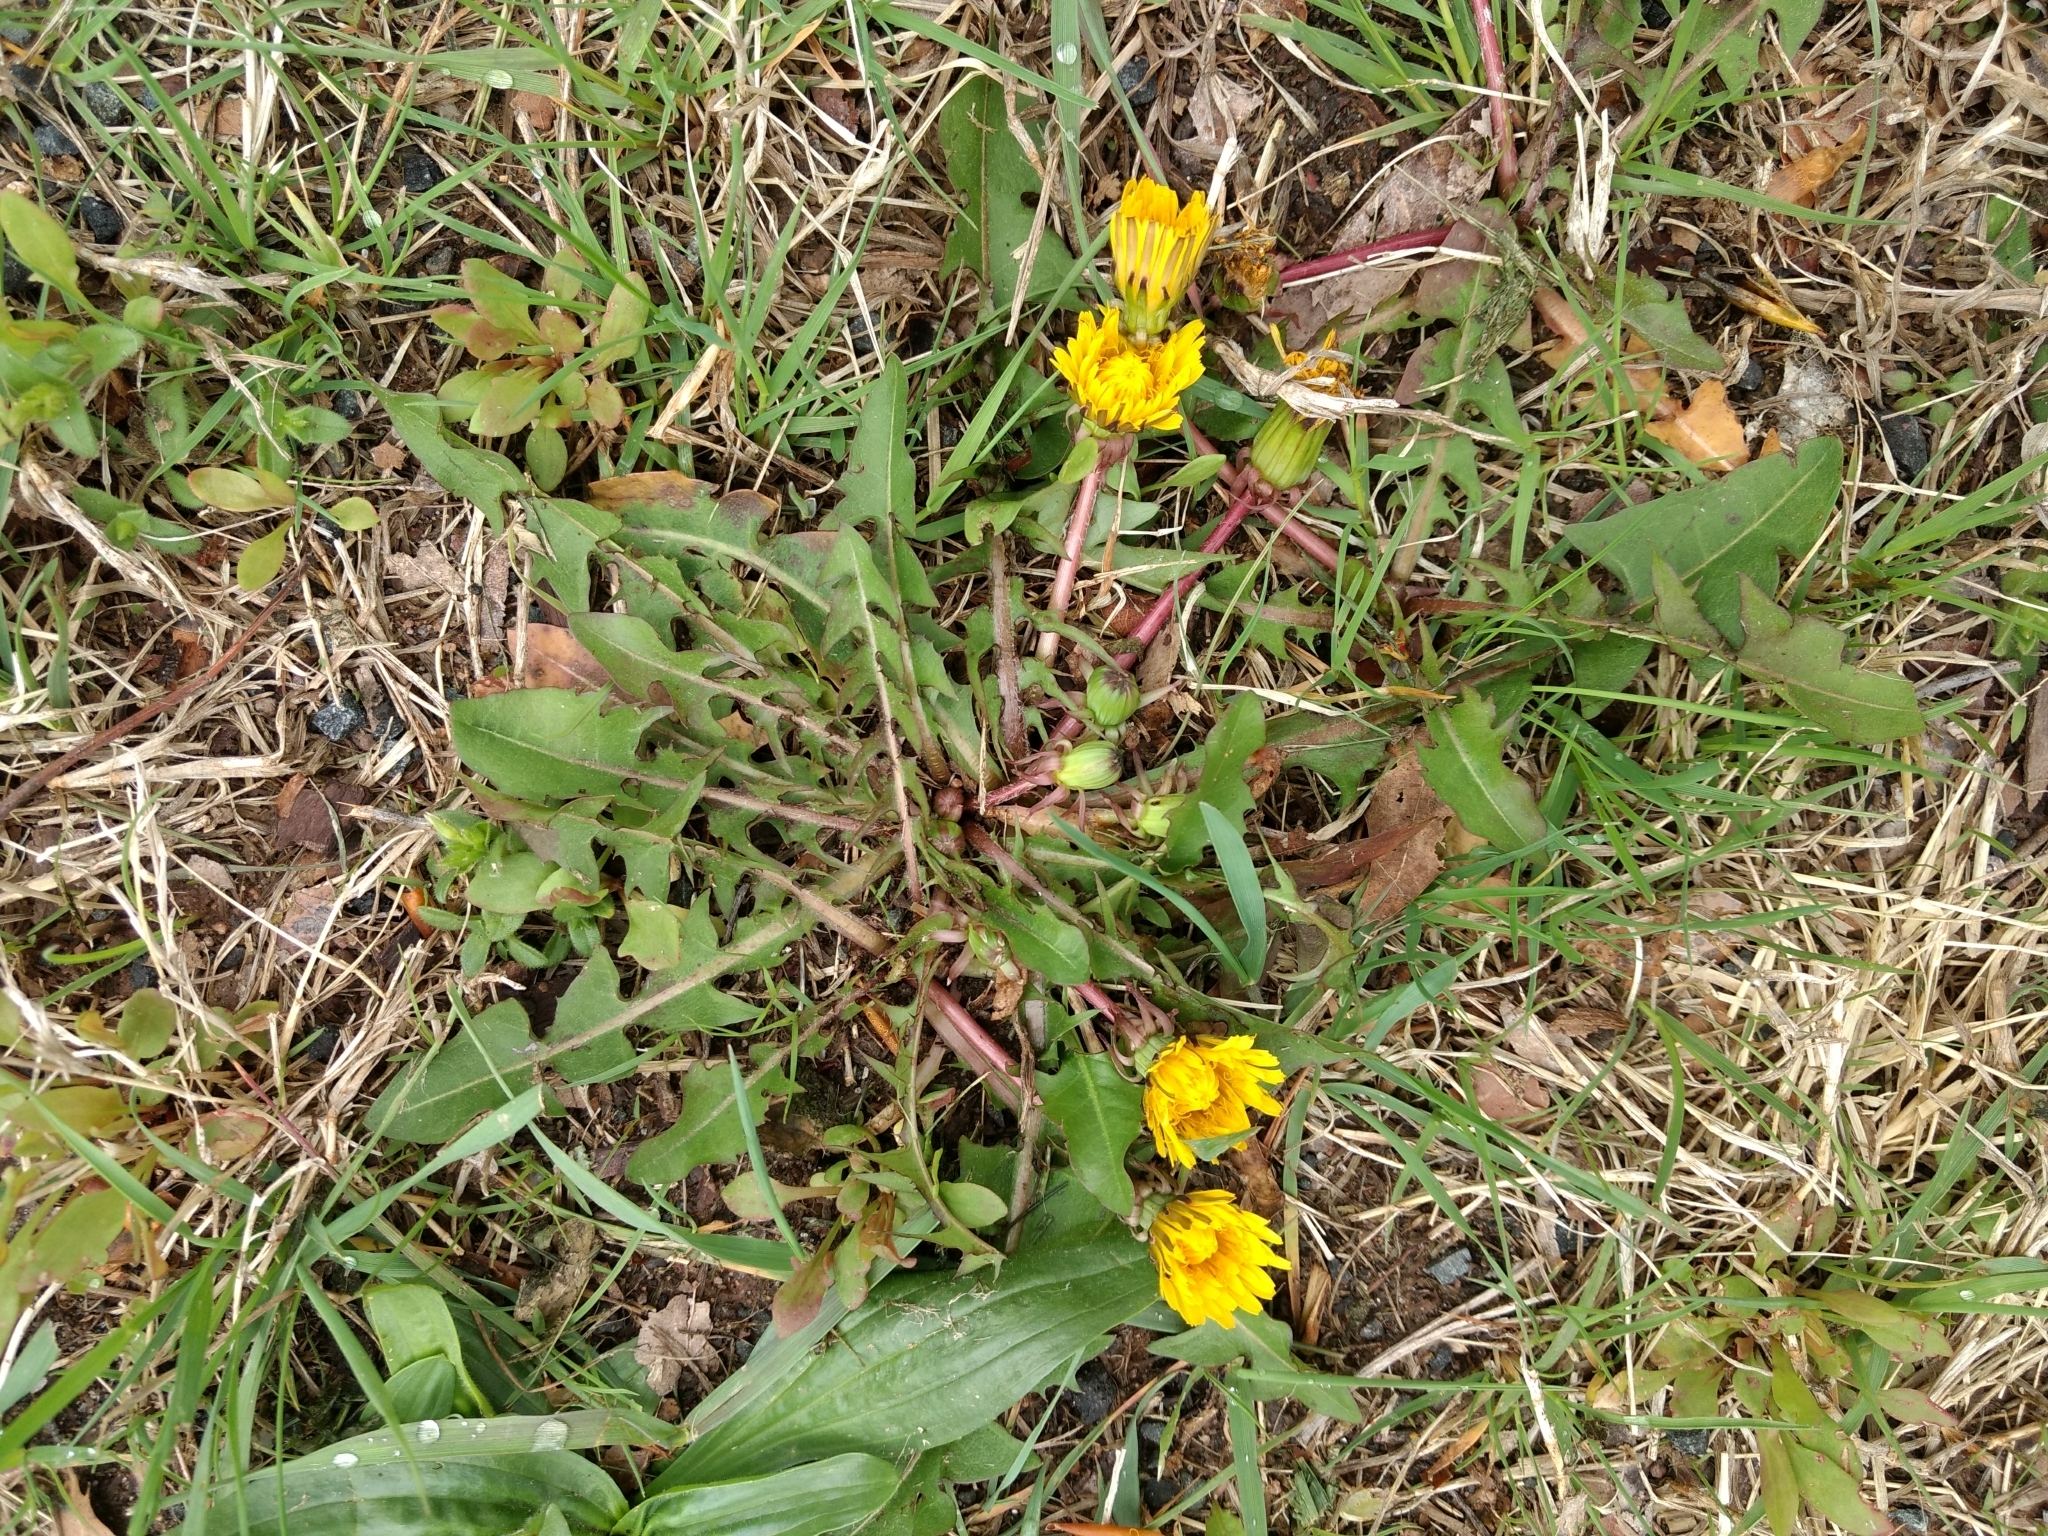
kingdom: Plantae
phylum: Tracheophyta
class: Magnoliopsida
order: Asterales
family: Asteraceae
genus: Taraxacum
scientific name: Taraxacum officinale
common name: Common dandelion
